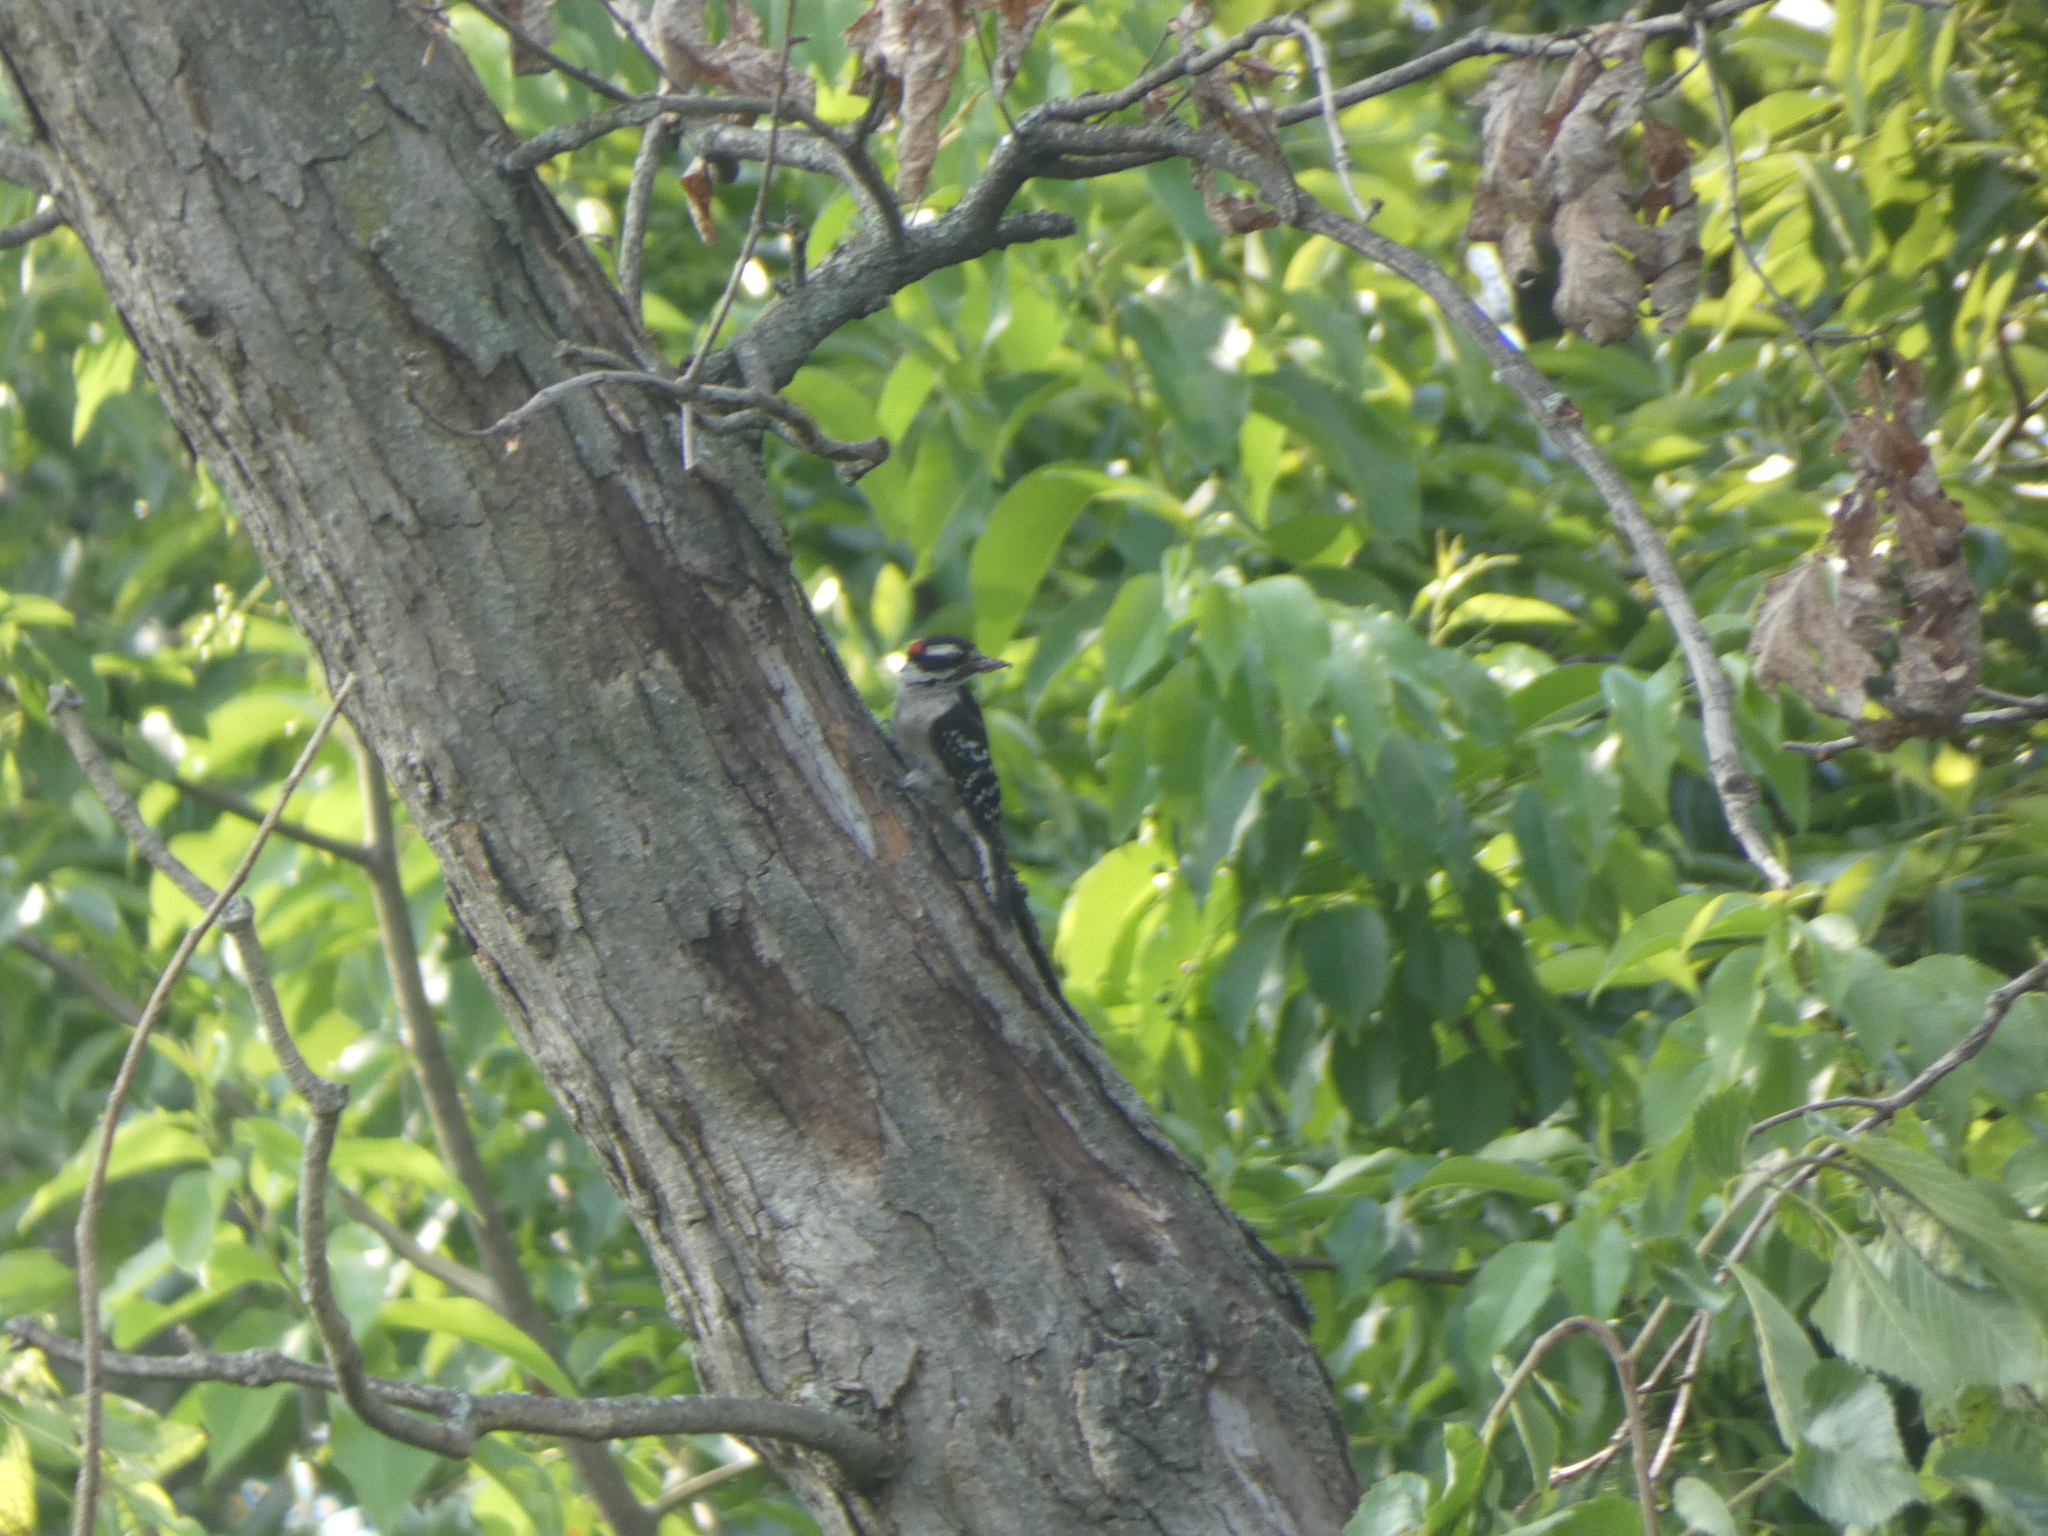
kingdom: Animalia
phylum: Chordata
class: Aves
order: Piciformes
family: Picidae
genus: Dryobates
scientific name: Dryobates pubescens
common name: Downy woodpecker
